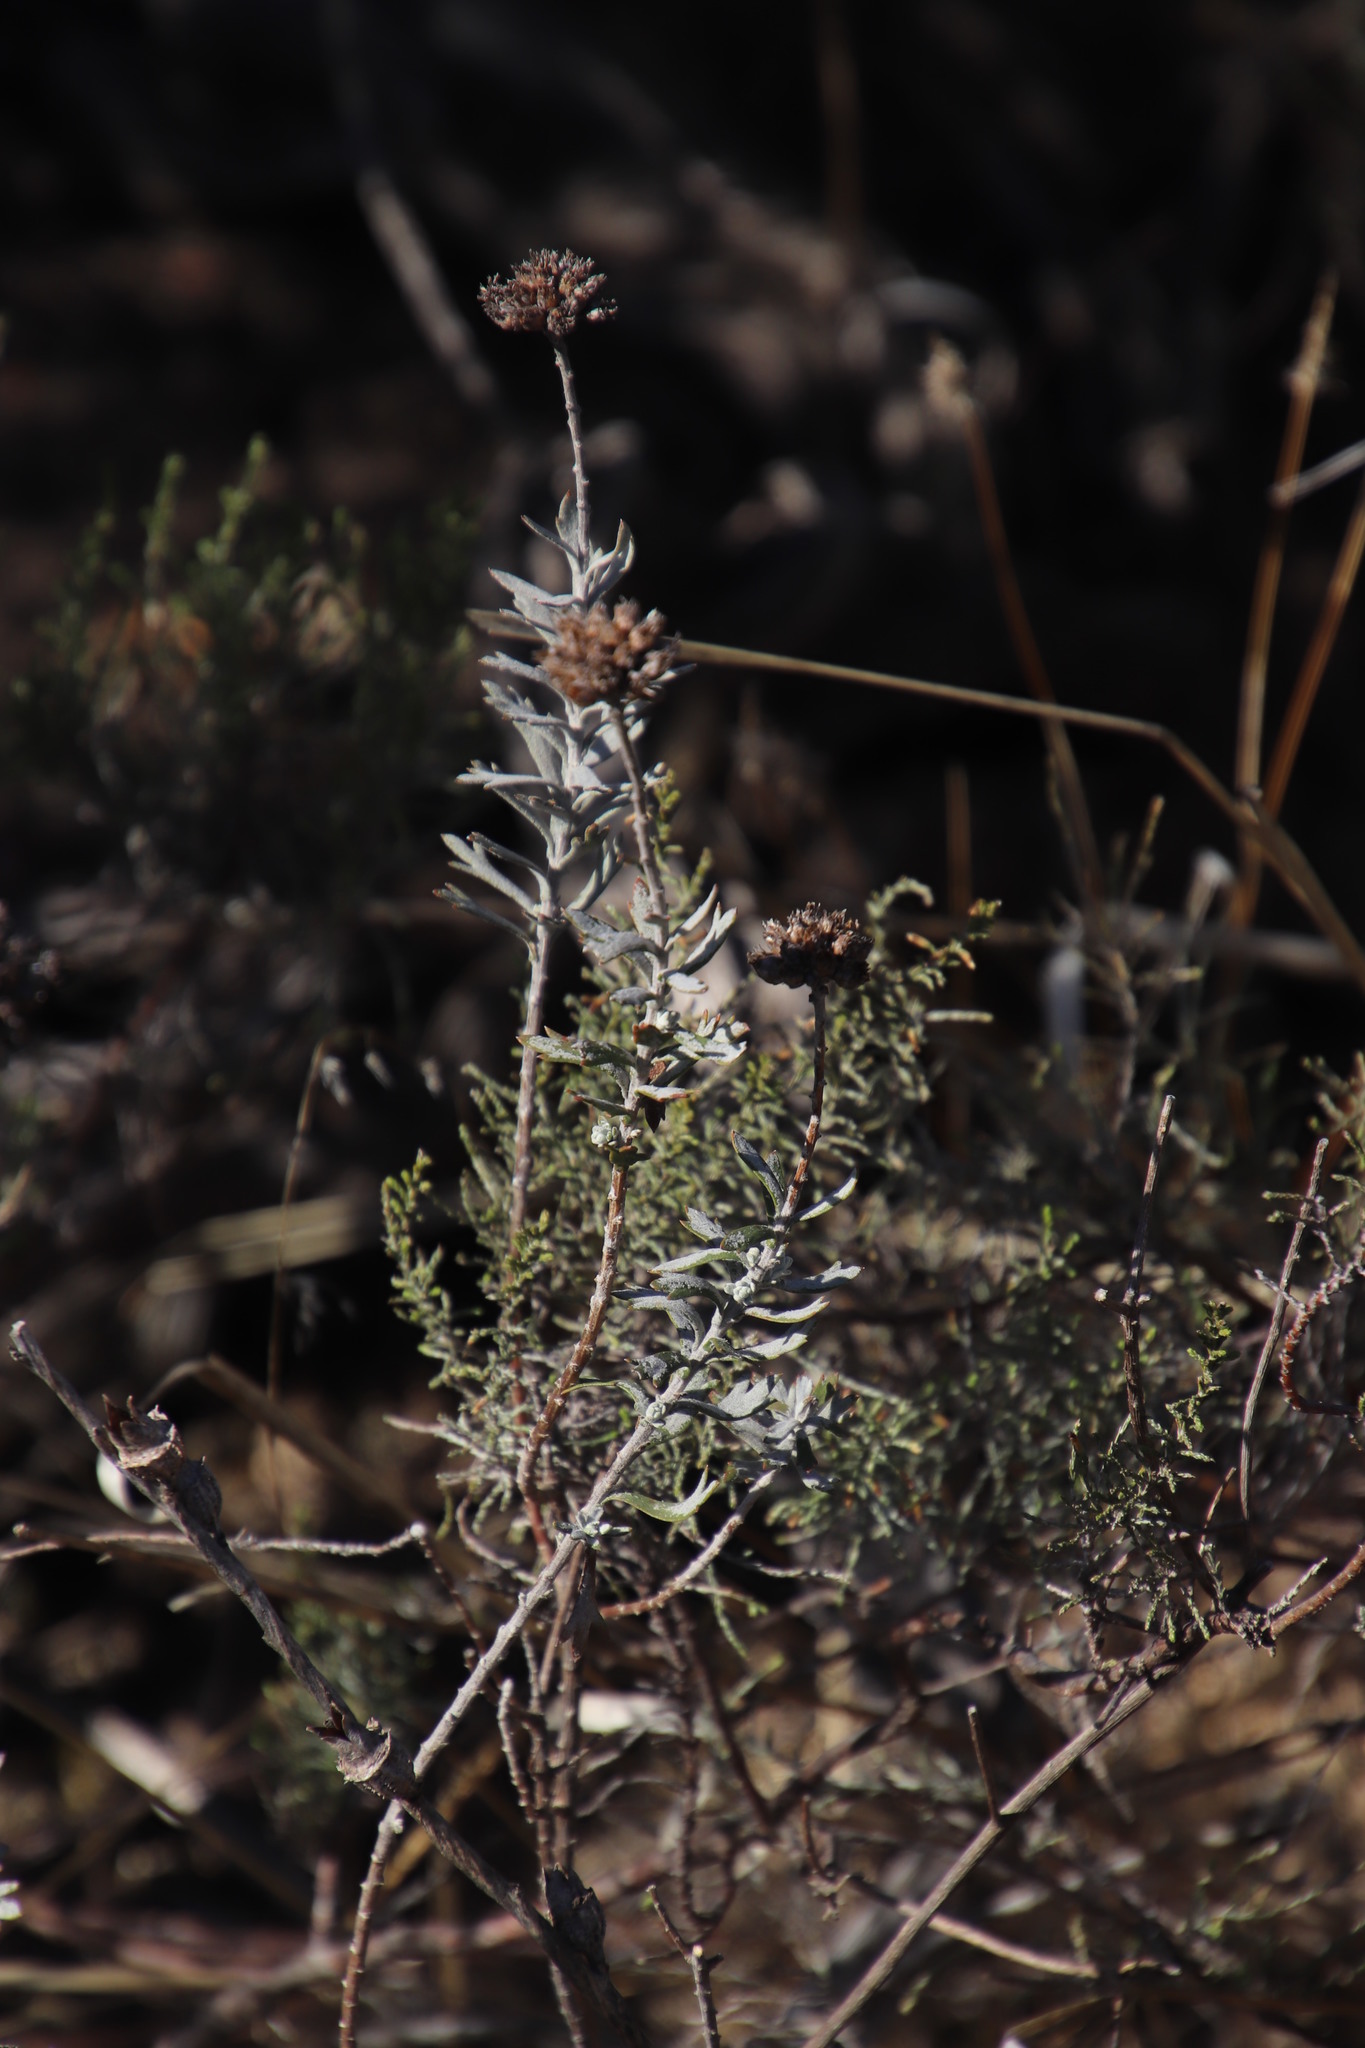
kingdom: Plantae
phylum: Tracheophyta
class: Magnoliopsida
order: Asterales
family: Asteraceae
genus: Athanasia
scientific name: Athanasia trifurcata
